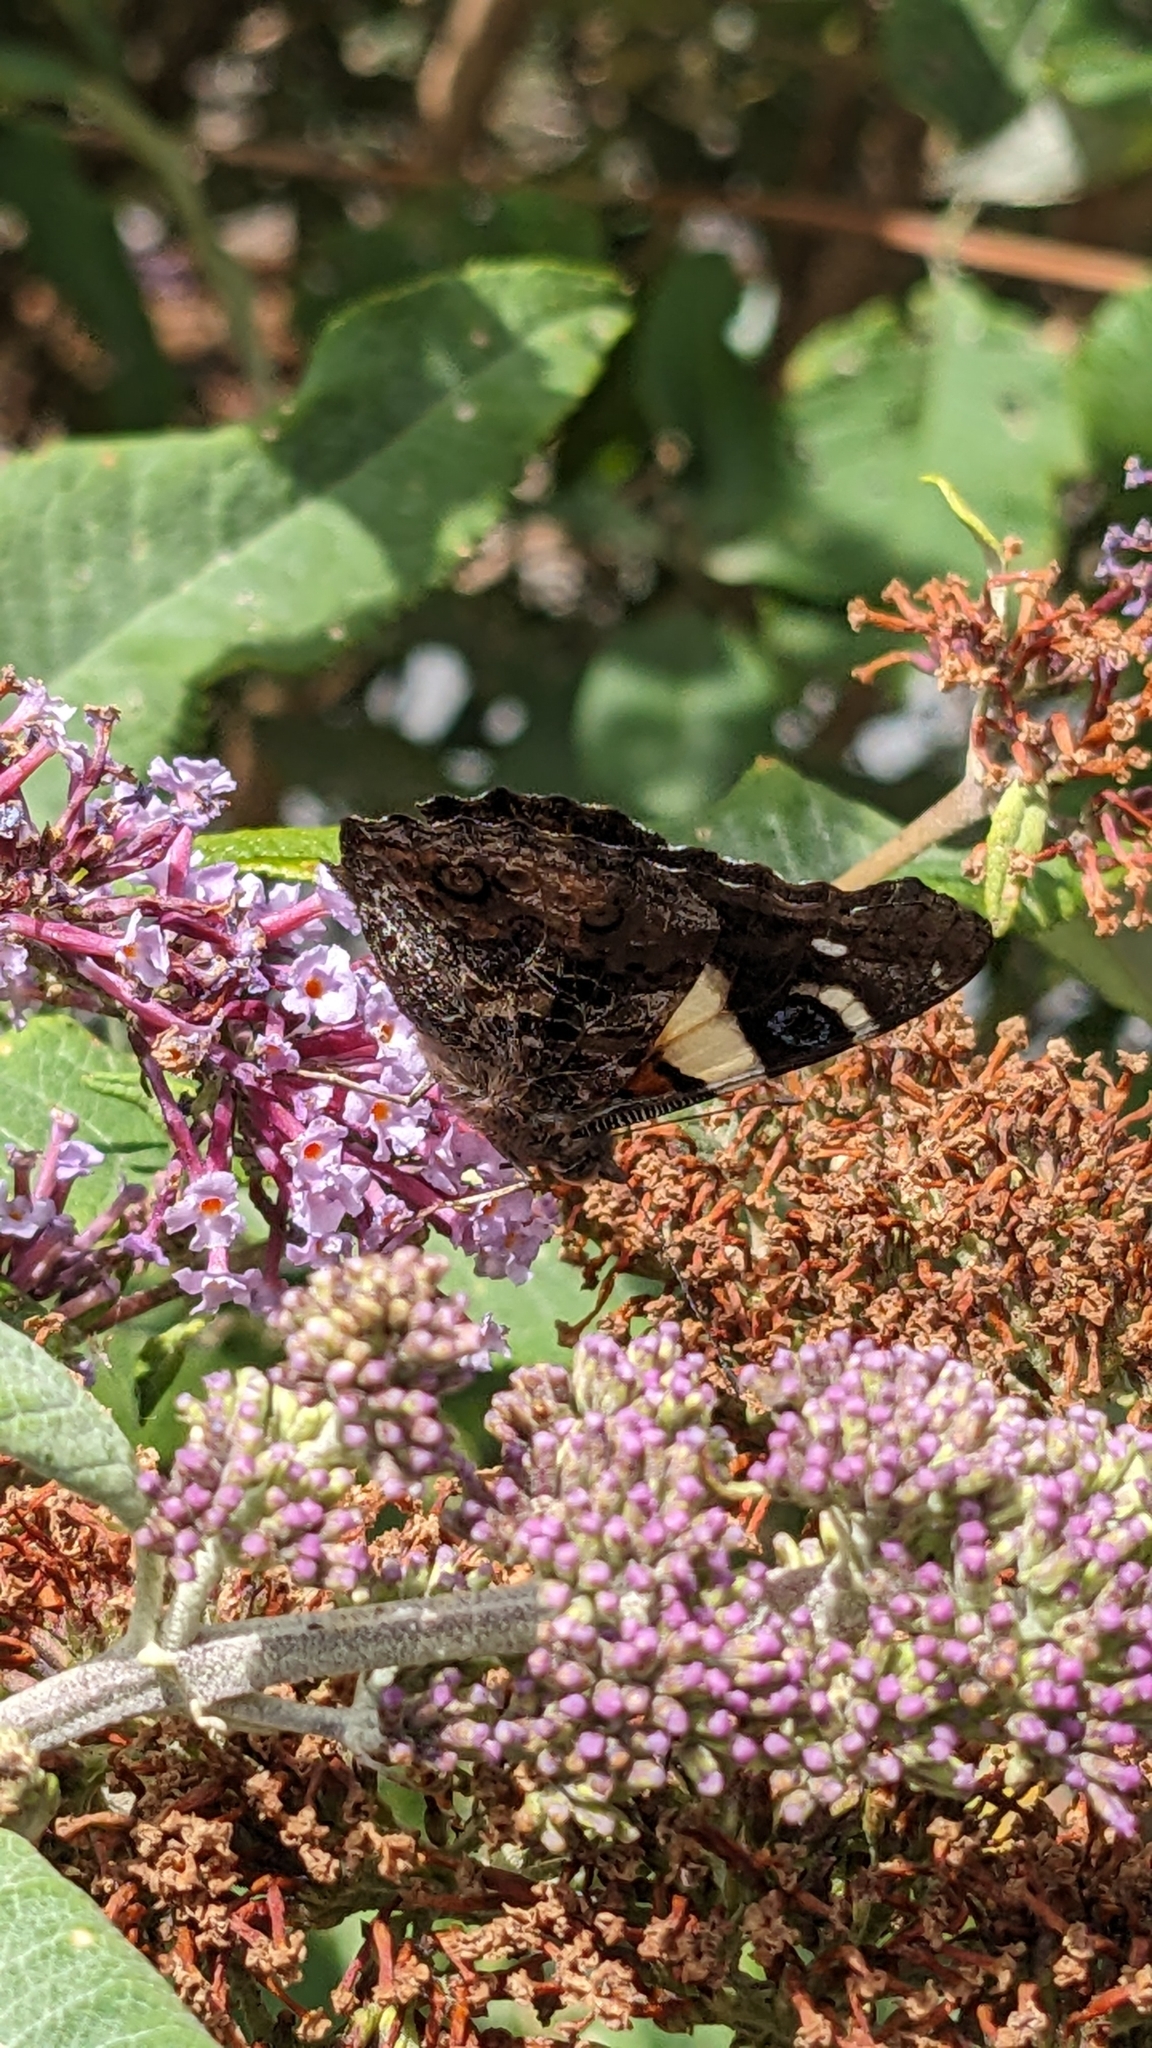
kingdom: Animalia
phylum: Arthropoda
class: Insecta
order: Lepidoptera
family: Nymphalidae
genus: Vanessa
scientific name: Vanessa itea
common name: Yellow admiral
